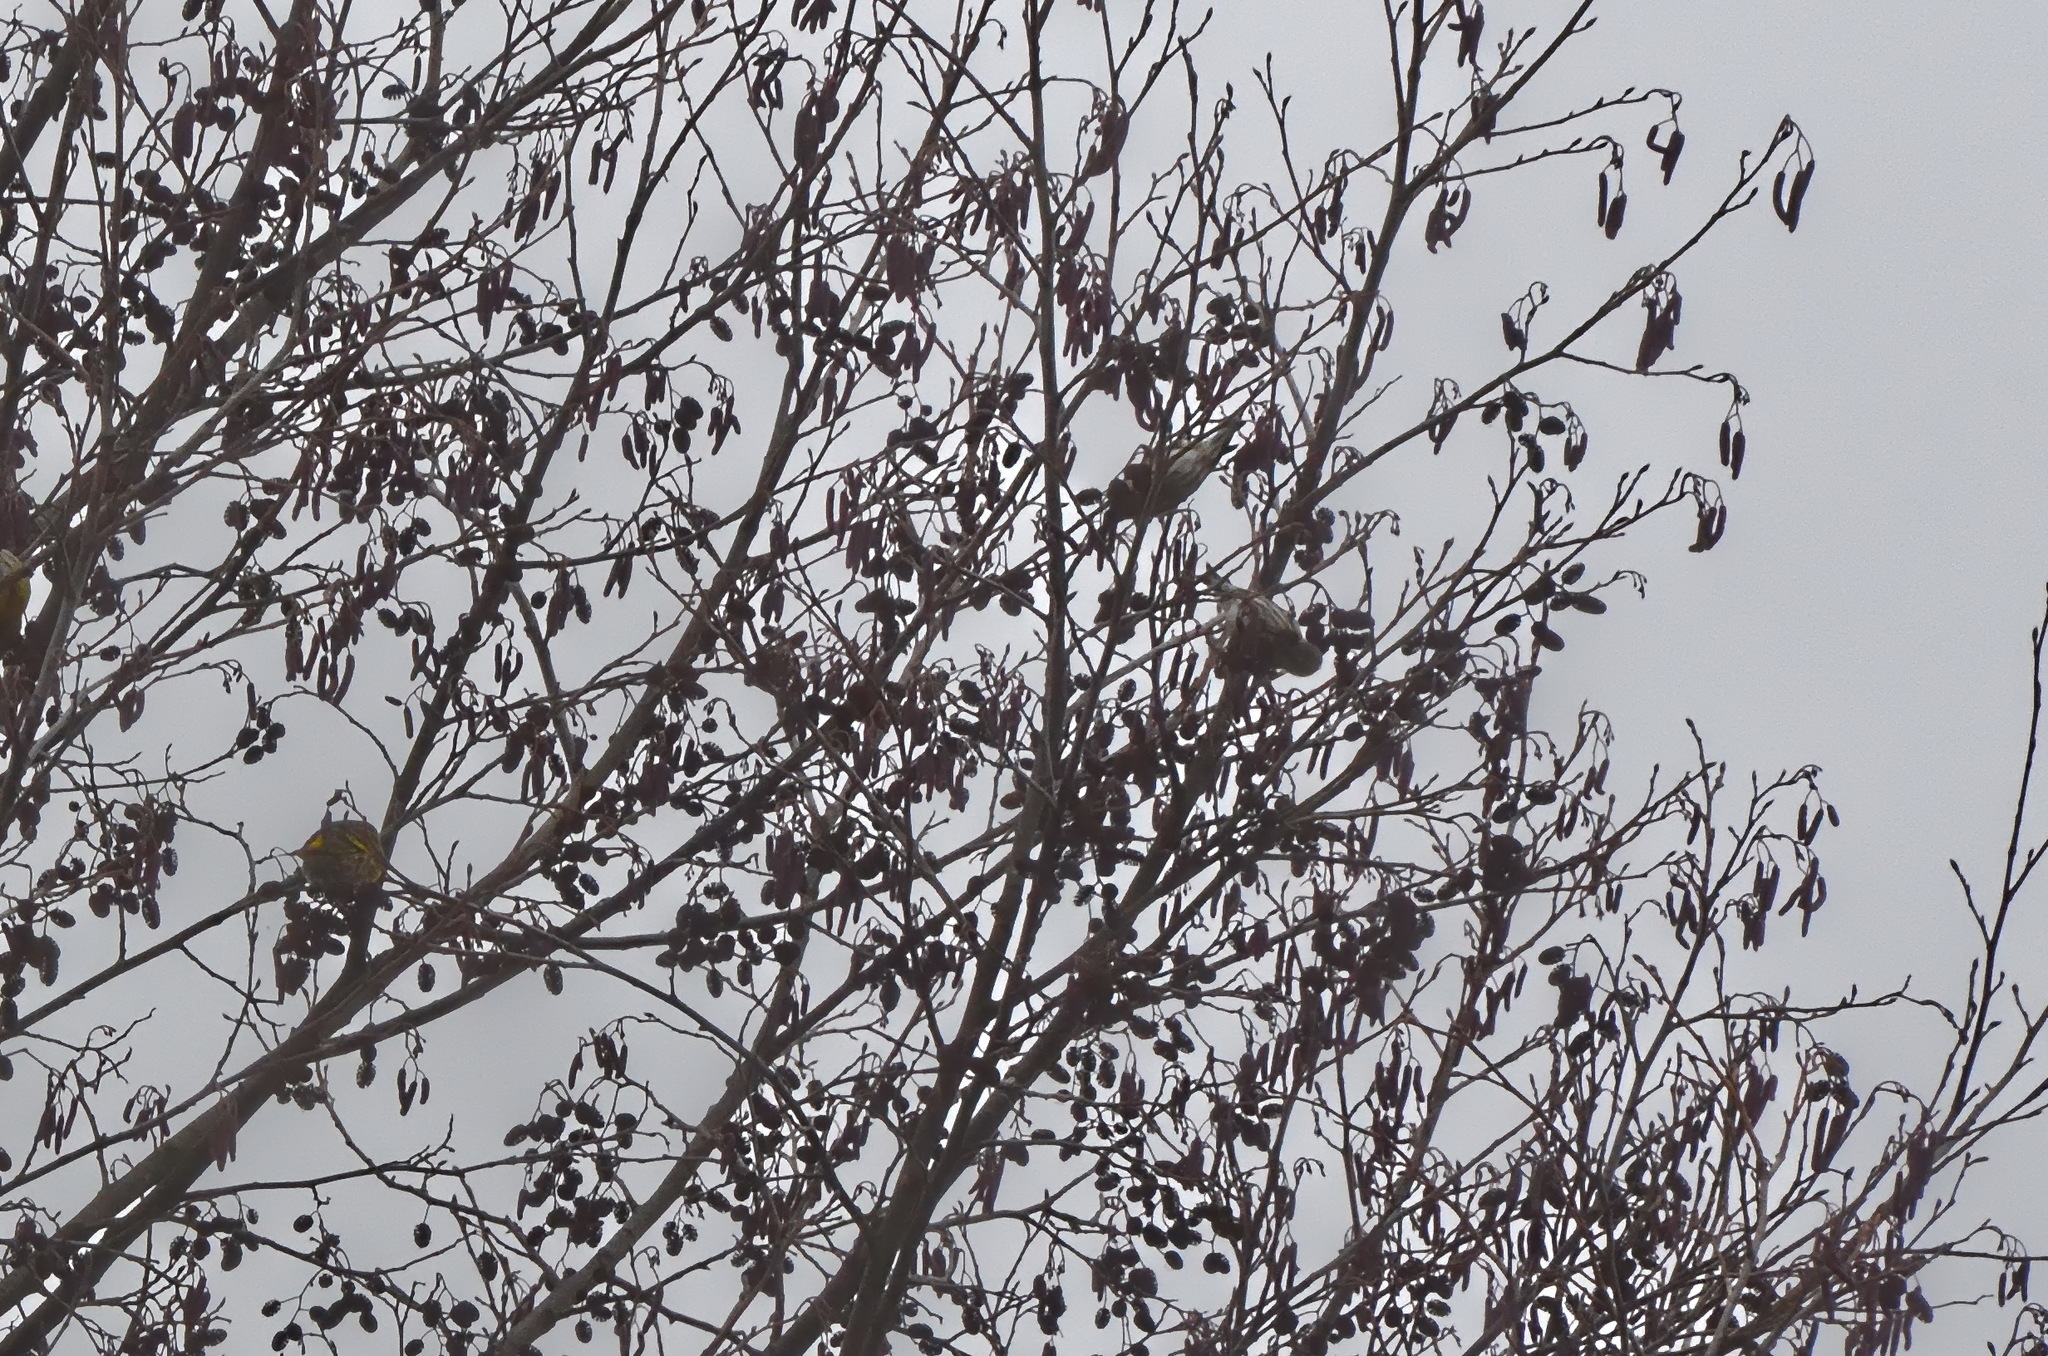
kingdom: Animalia
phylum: Chordata
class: Aves
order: Passeriformes
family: Fringillidae
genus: Spinus
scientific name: Spinus spinus
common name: Eurasian siskin
